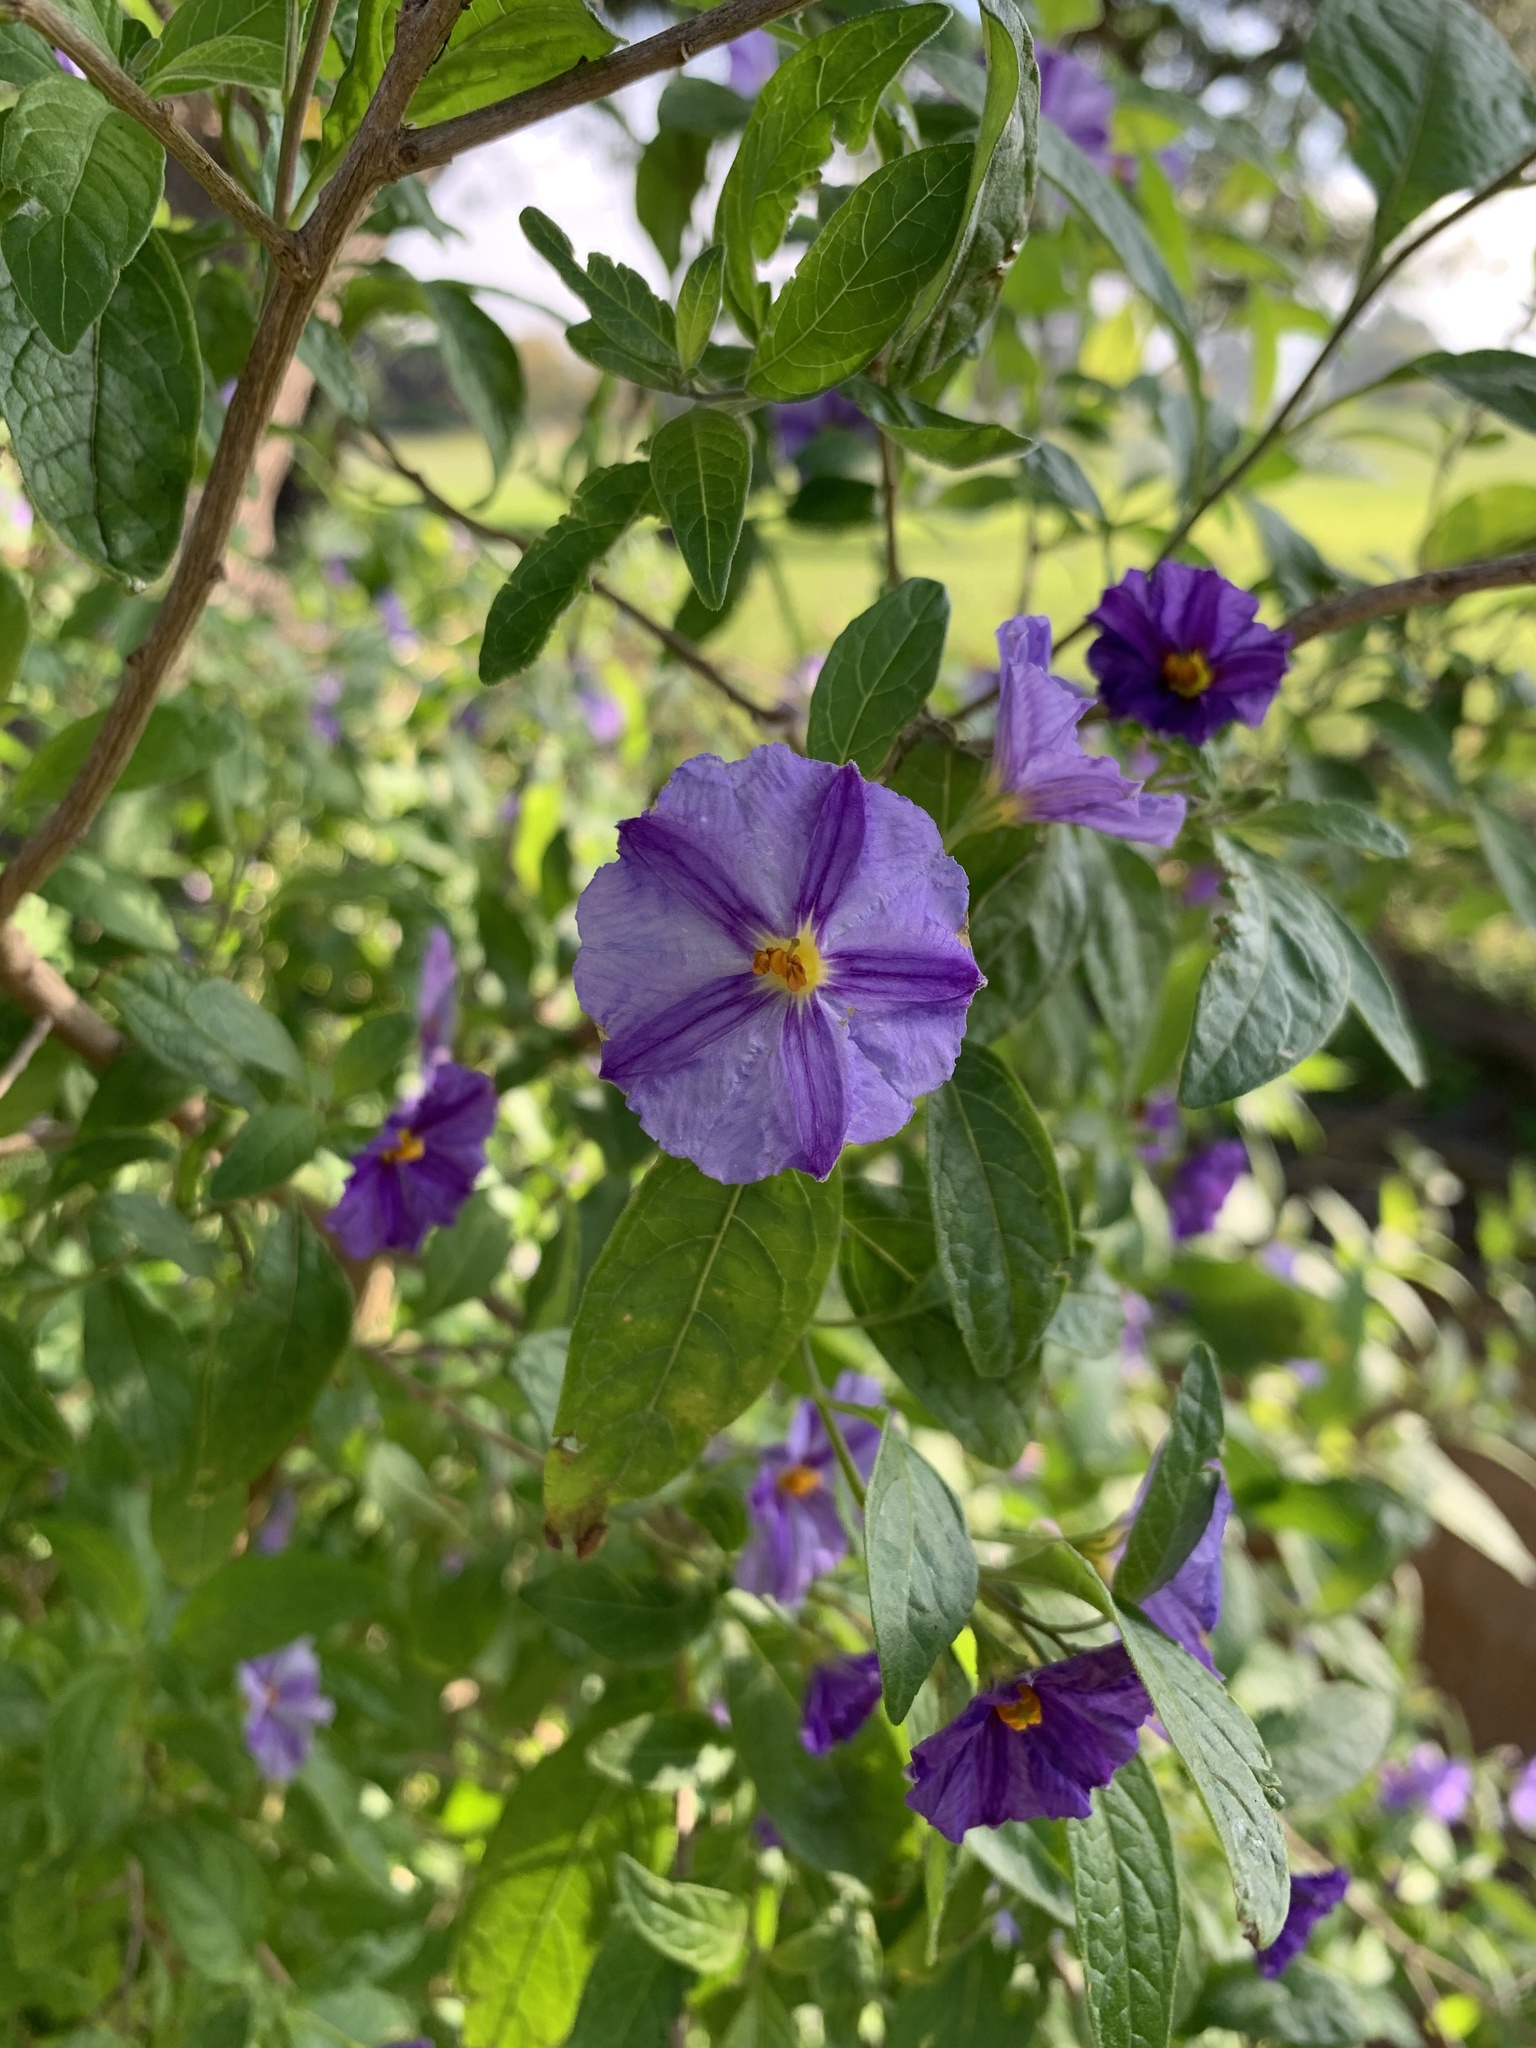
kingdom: Plantae
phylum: Tracheophyta
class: Magnoliopsida
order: Solanales
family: Solanaceae
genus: Lycianthes
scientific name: Lycianthes rantonnetii
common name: Blue potatobush
